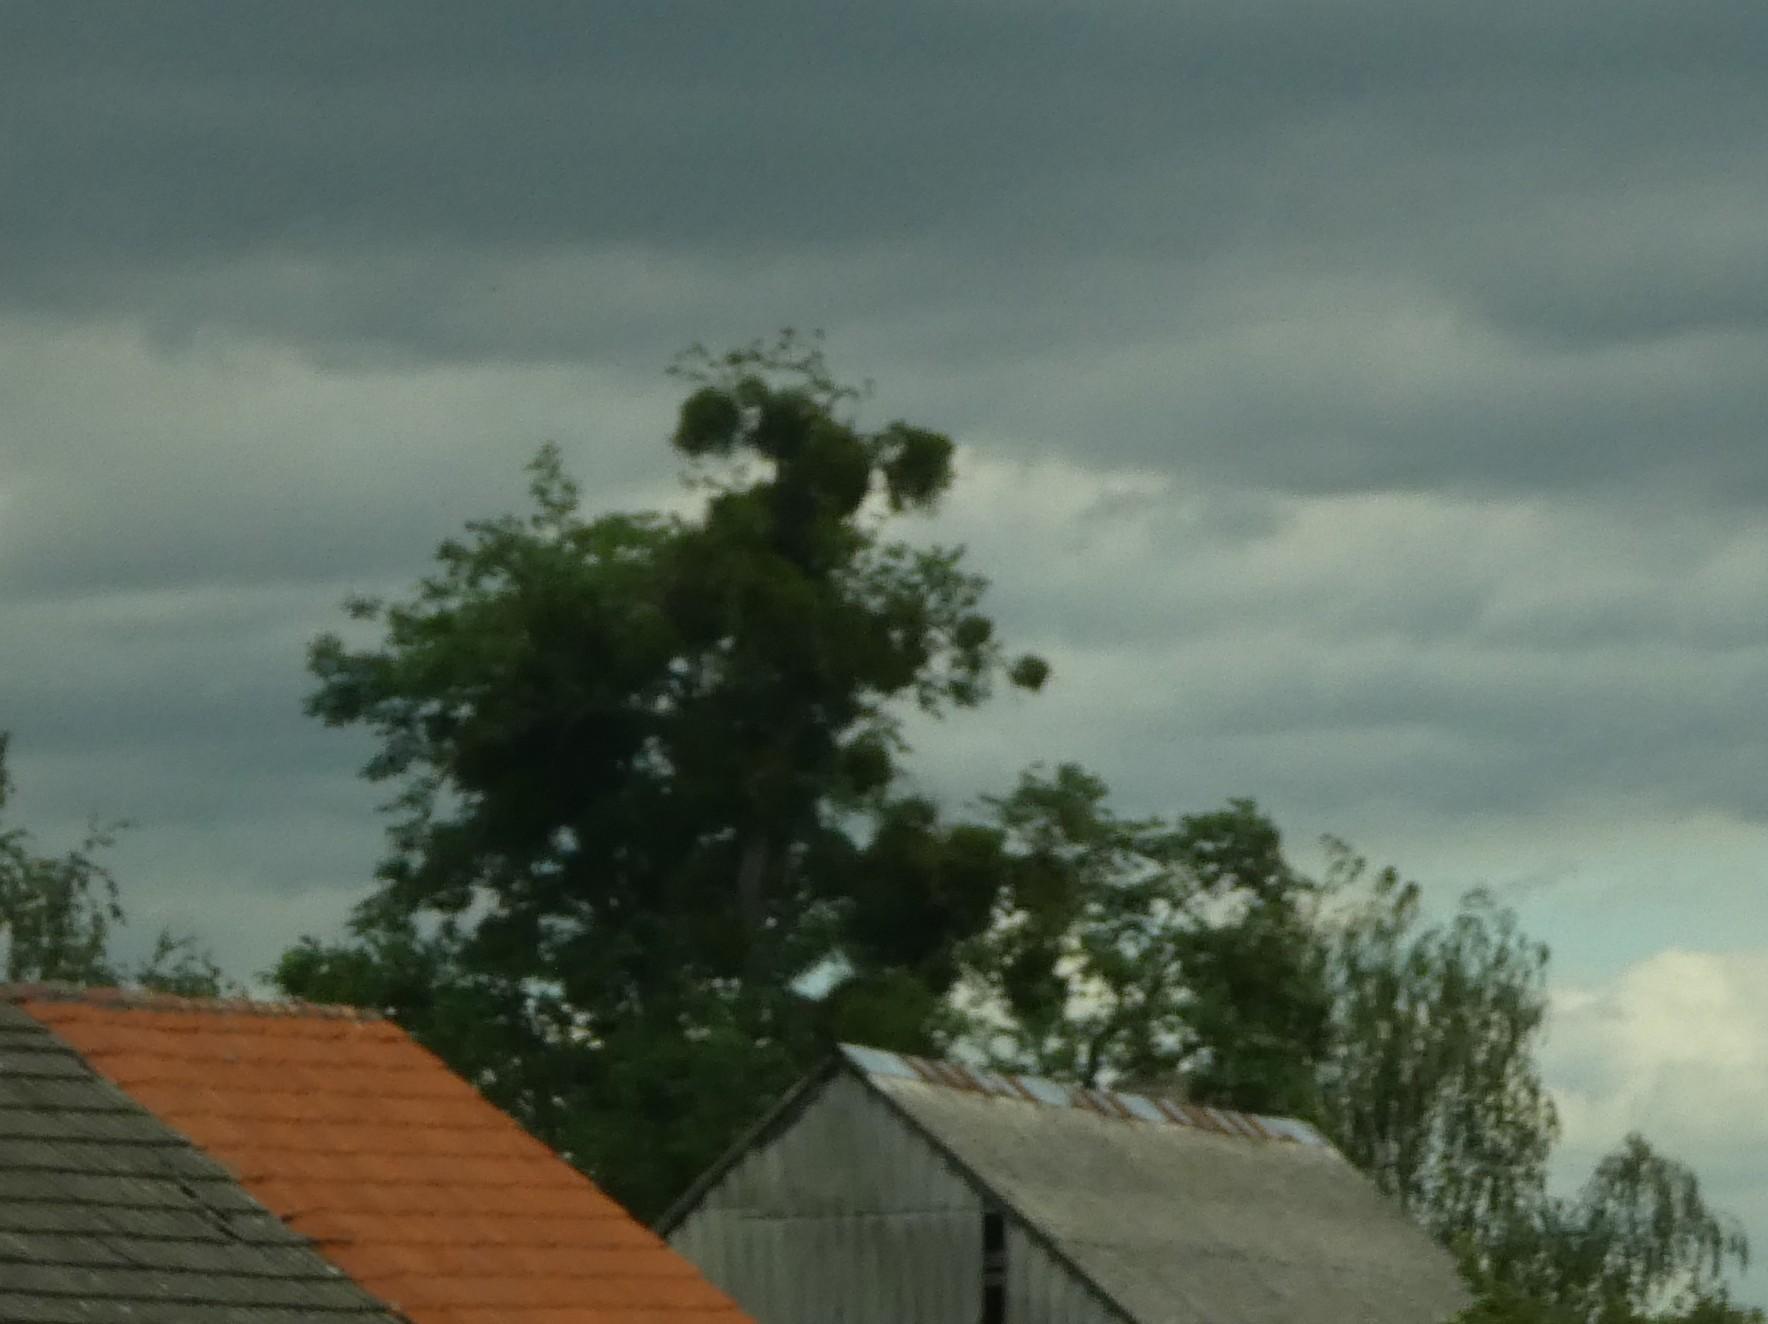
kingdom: Plantae
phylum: Tracheophyta
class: Magnoliopsida
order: Santalales
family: Viscaceae
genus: Viscum
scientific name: Viscum album
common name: Mistletoe
